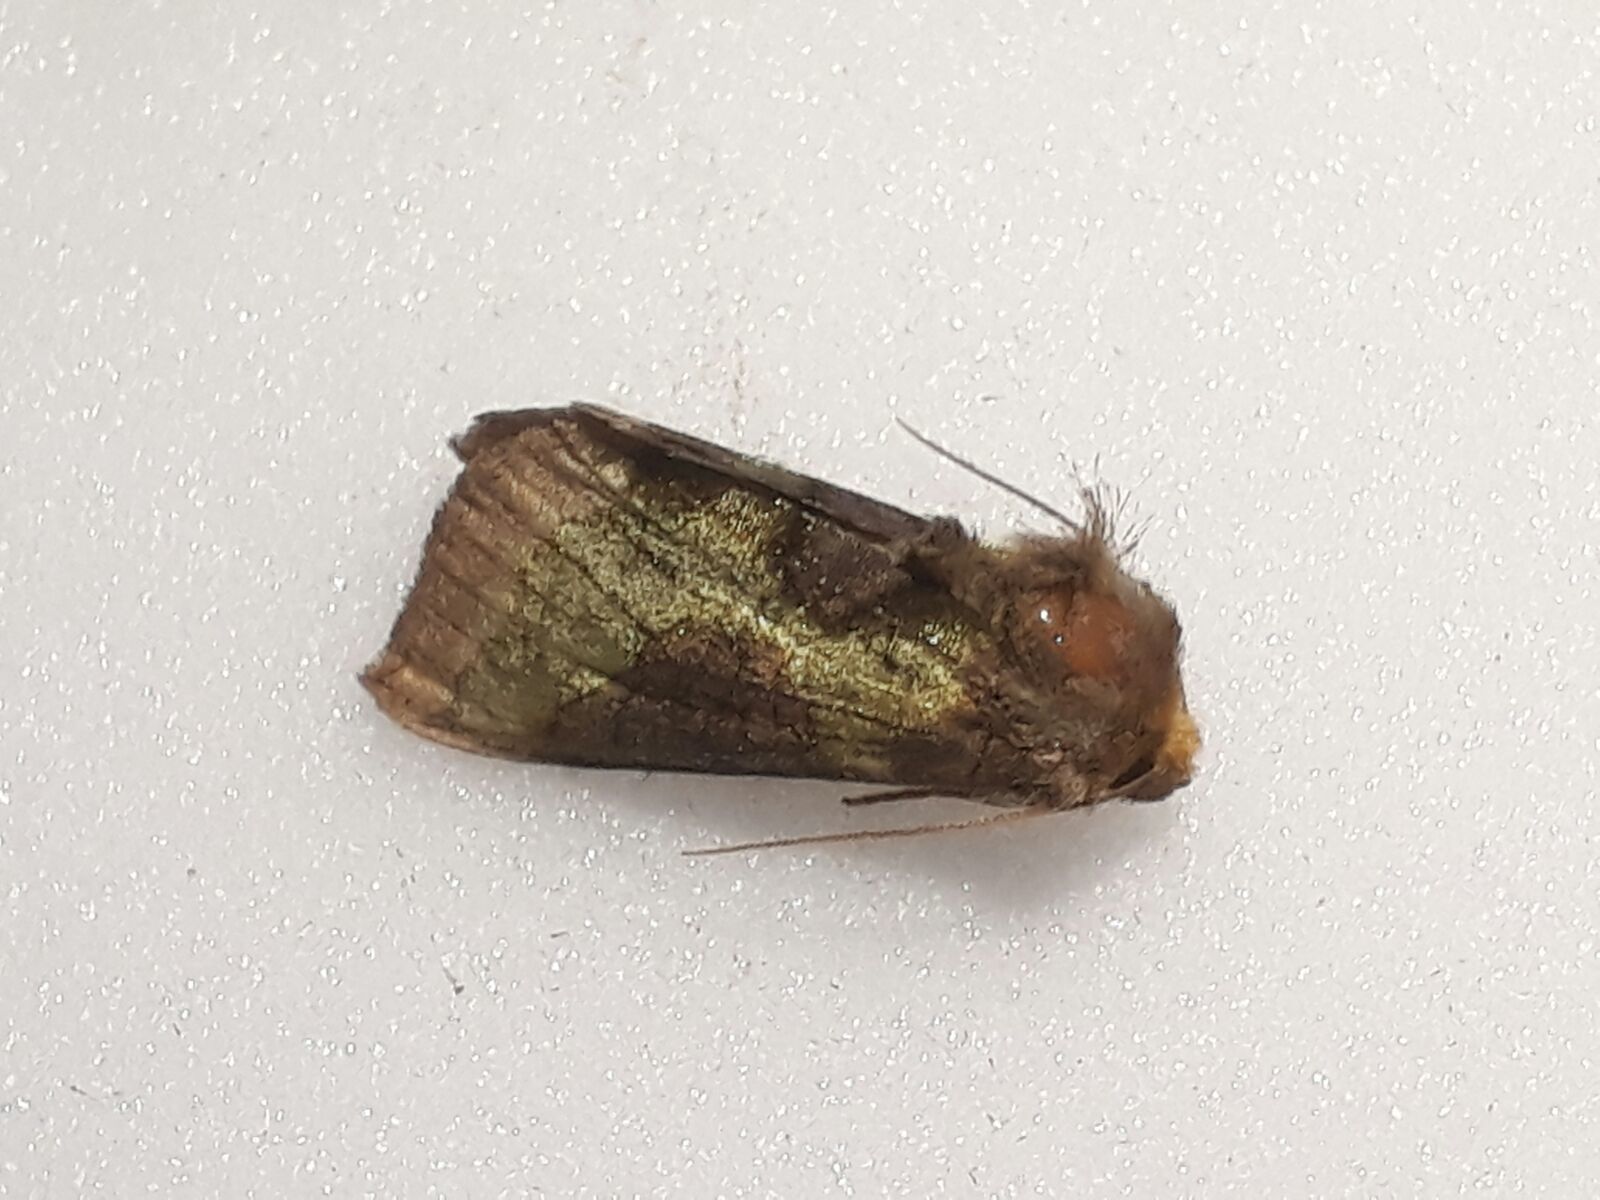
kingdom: Animalia
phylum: Arthropoda
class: Insecta
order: Lepidoptera
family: Noctuidae
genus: Diachrysia
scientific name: Diachrysia chrysitis
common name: Burnished brass
